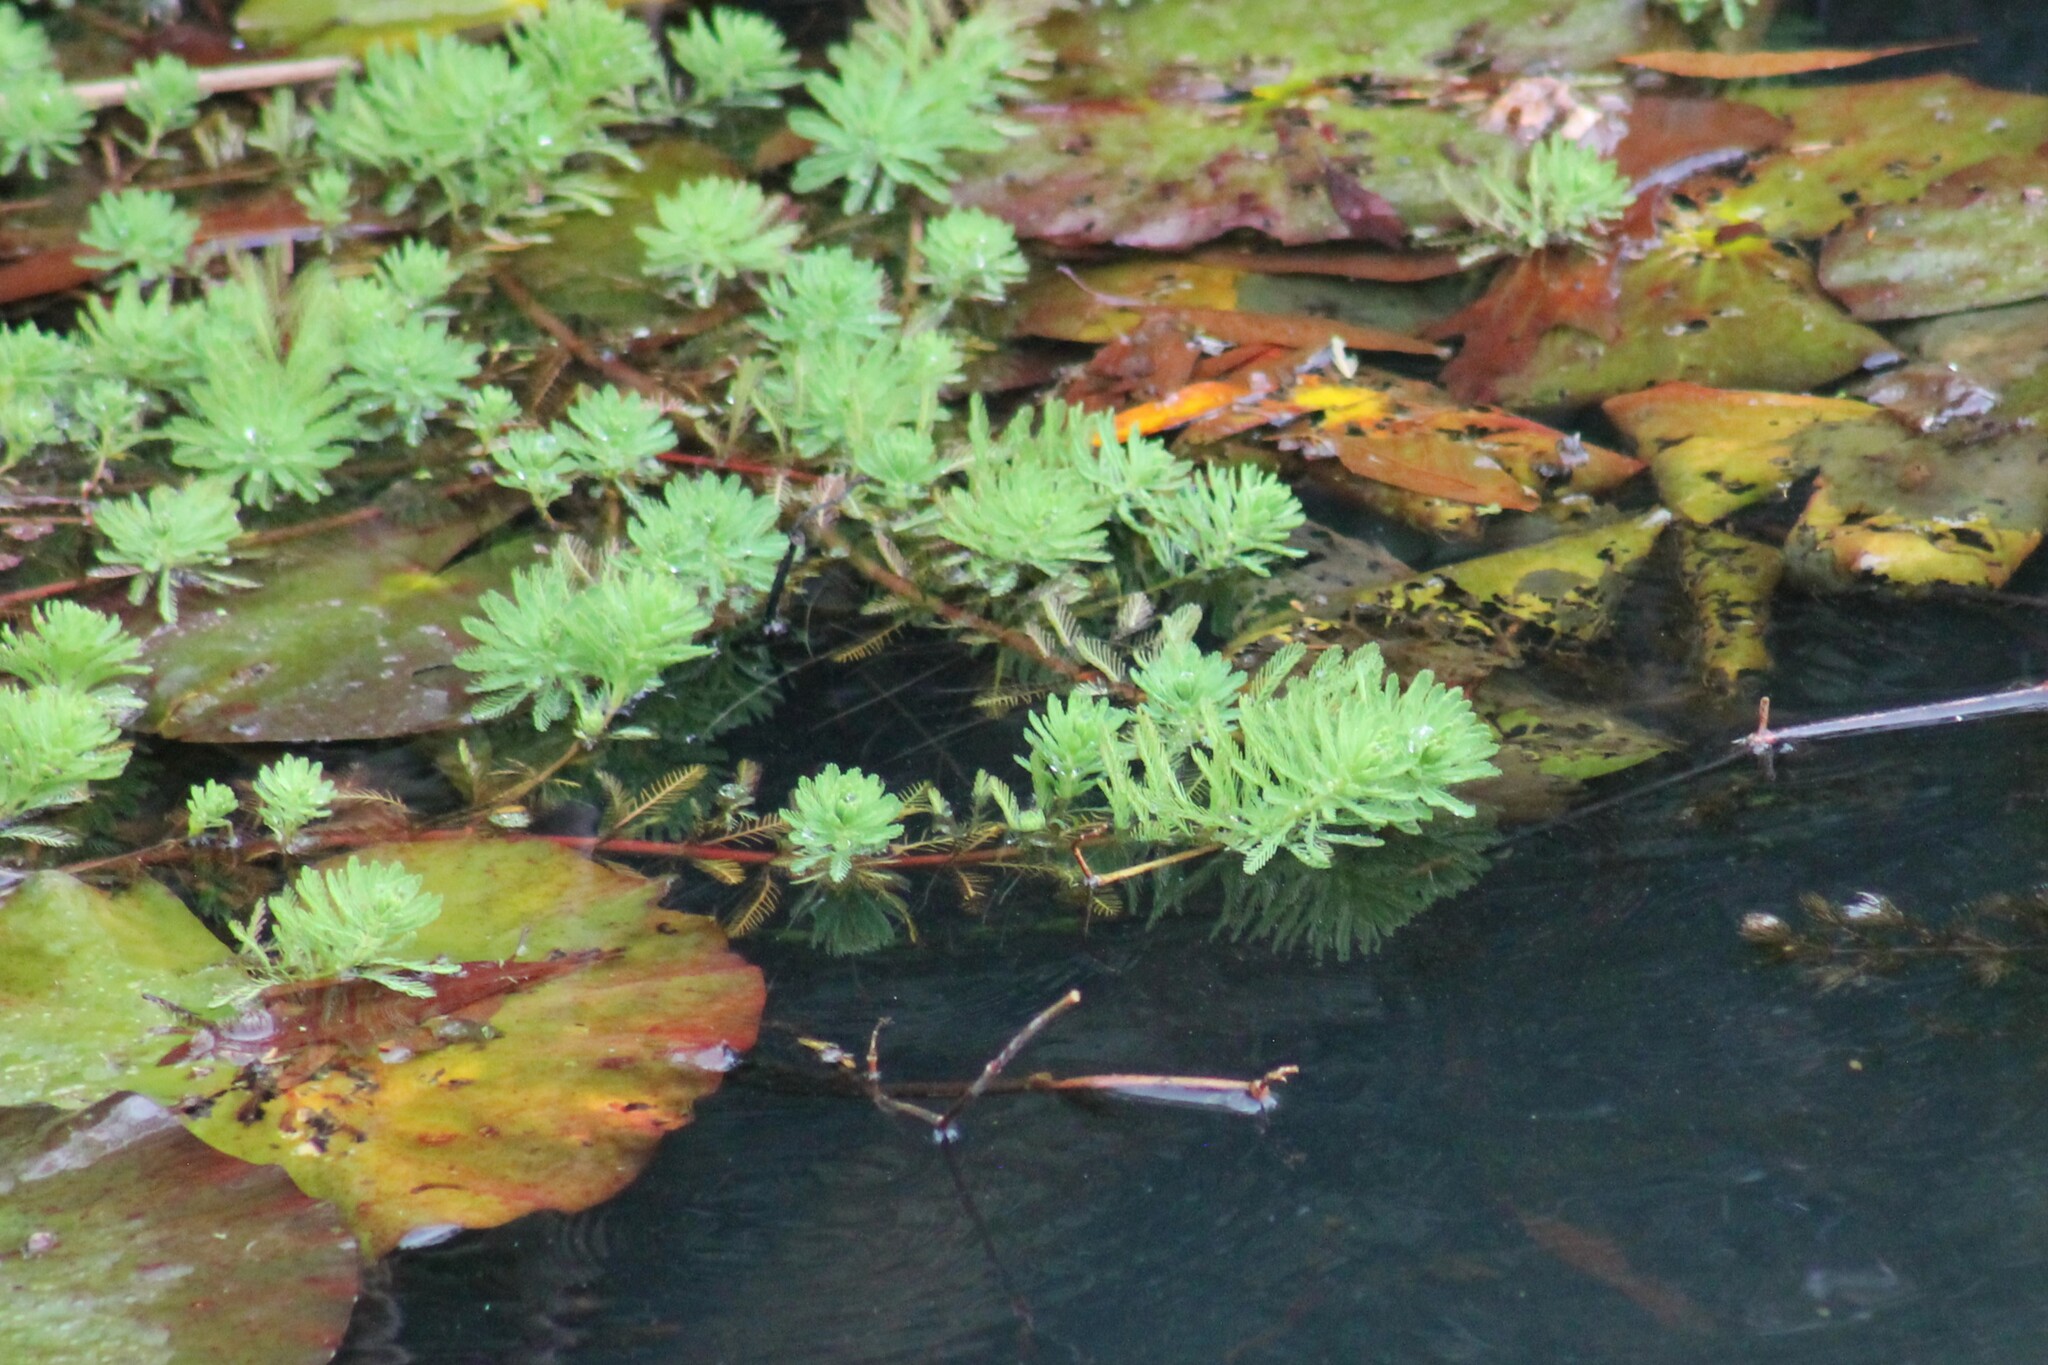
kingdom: Plantae
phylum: Tracheophyta
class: Magnoliopsida
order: Saxifragales
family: Haloragaceae
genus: Myriophyllum
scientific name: Myriophyllum aquaticum
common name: Parrot's feather
